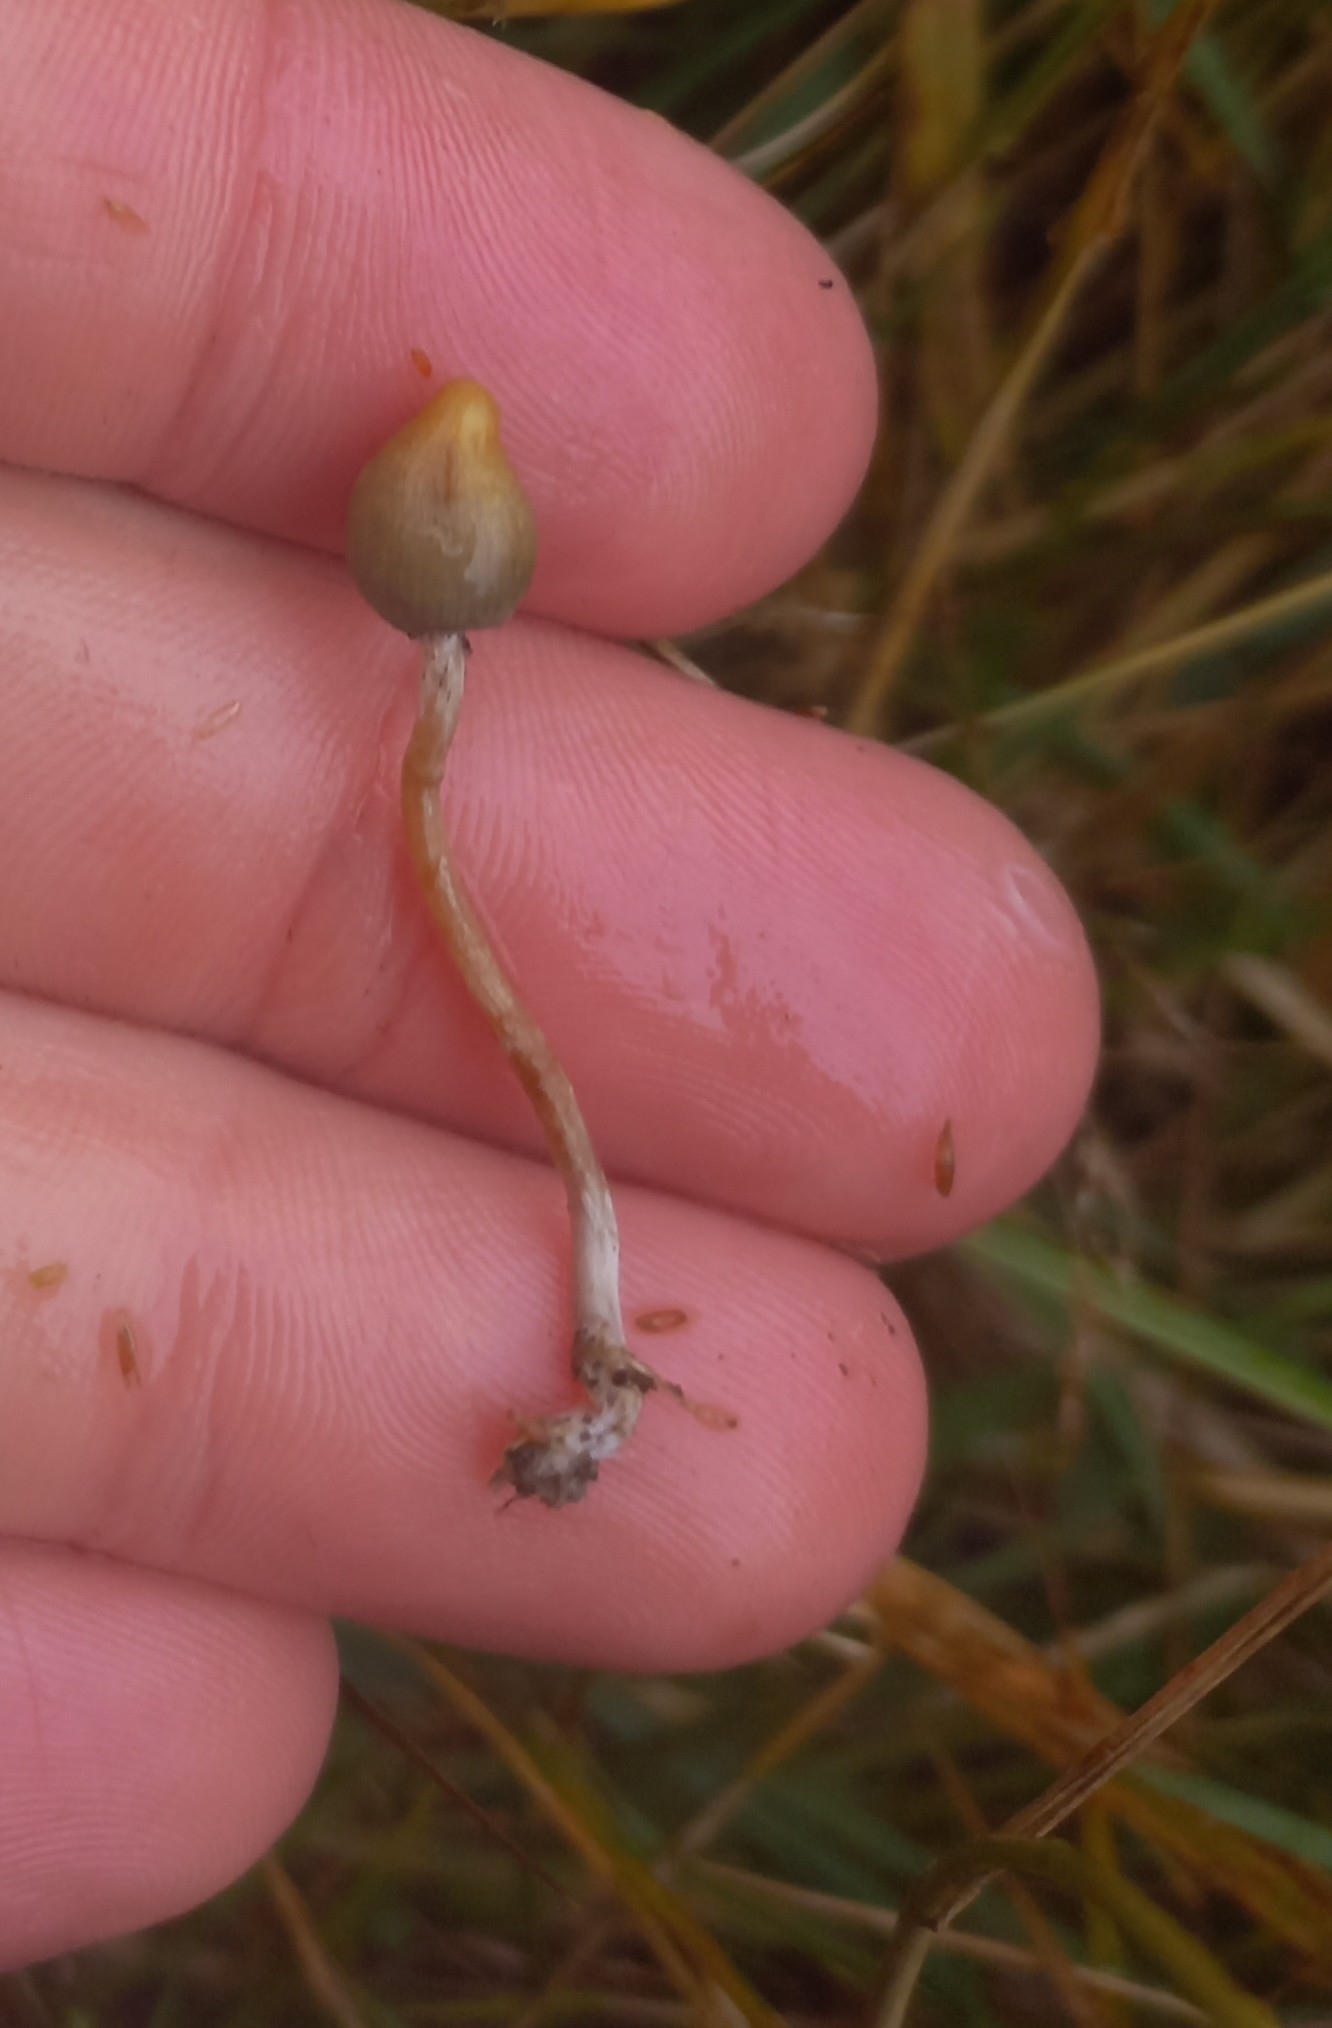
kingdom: Fungi
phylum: Basidiomycota
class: Agaricomycetes
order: Agaricales
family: Hymenogastraceae
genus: Psilocybe
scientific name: Psilocybe semilanceata
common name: Liberty cap
